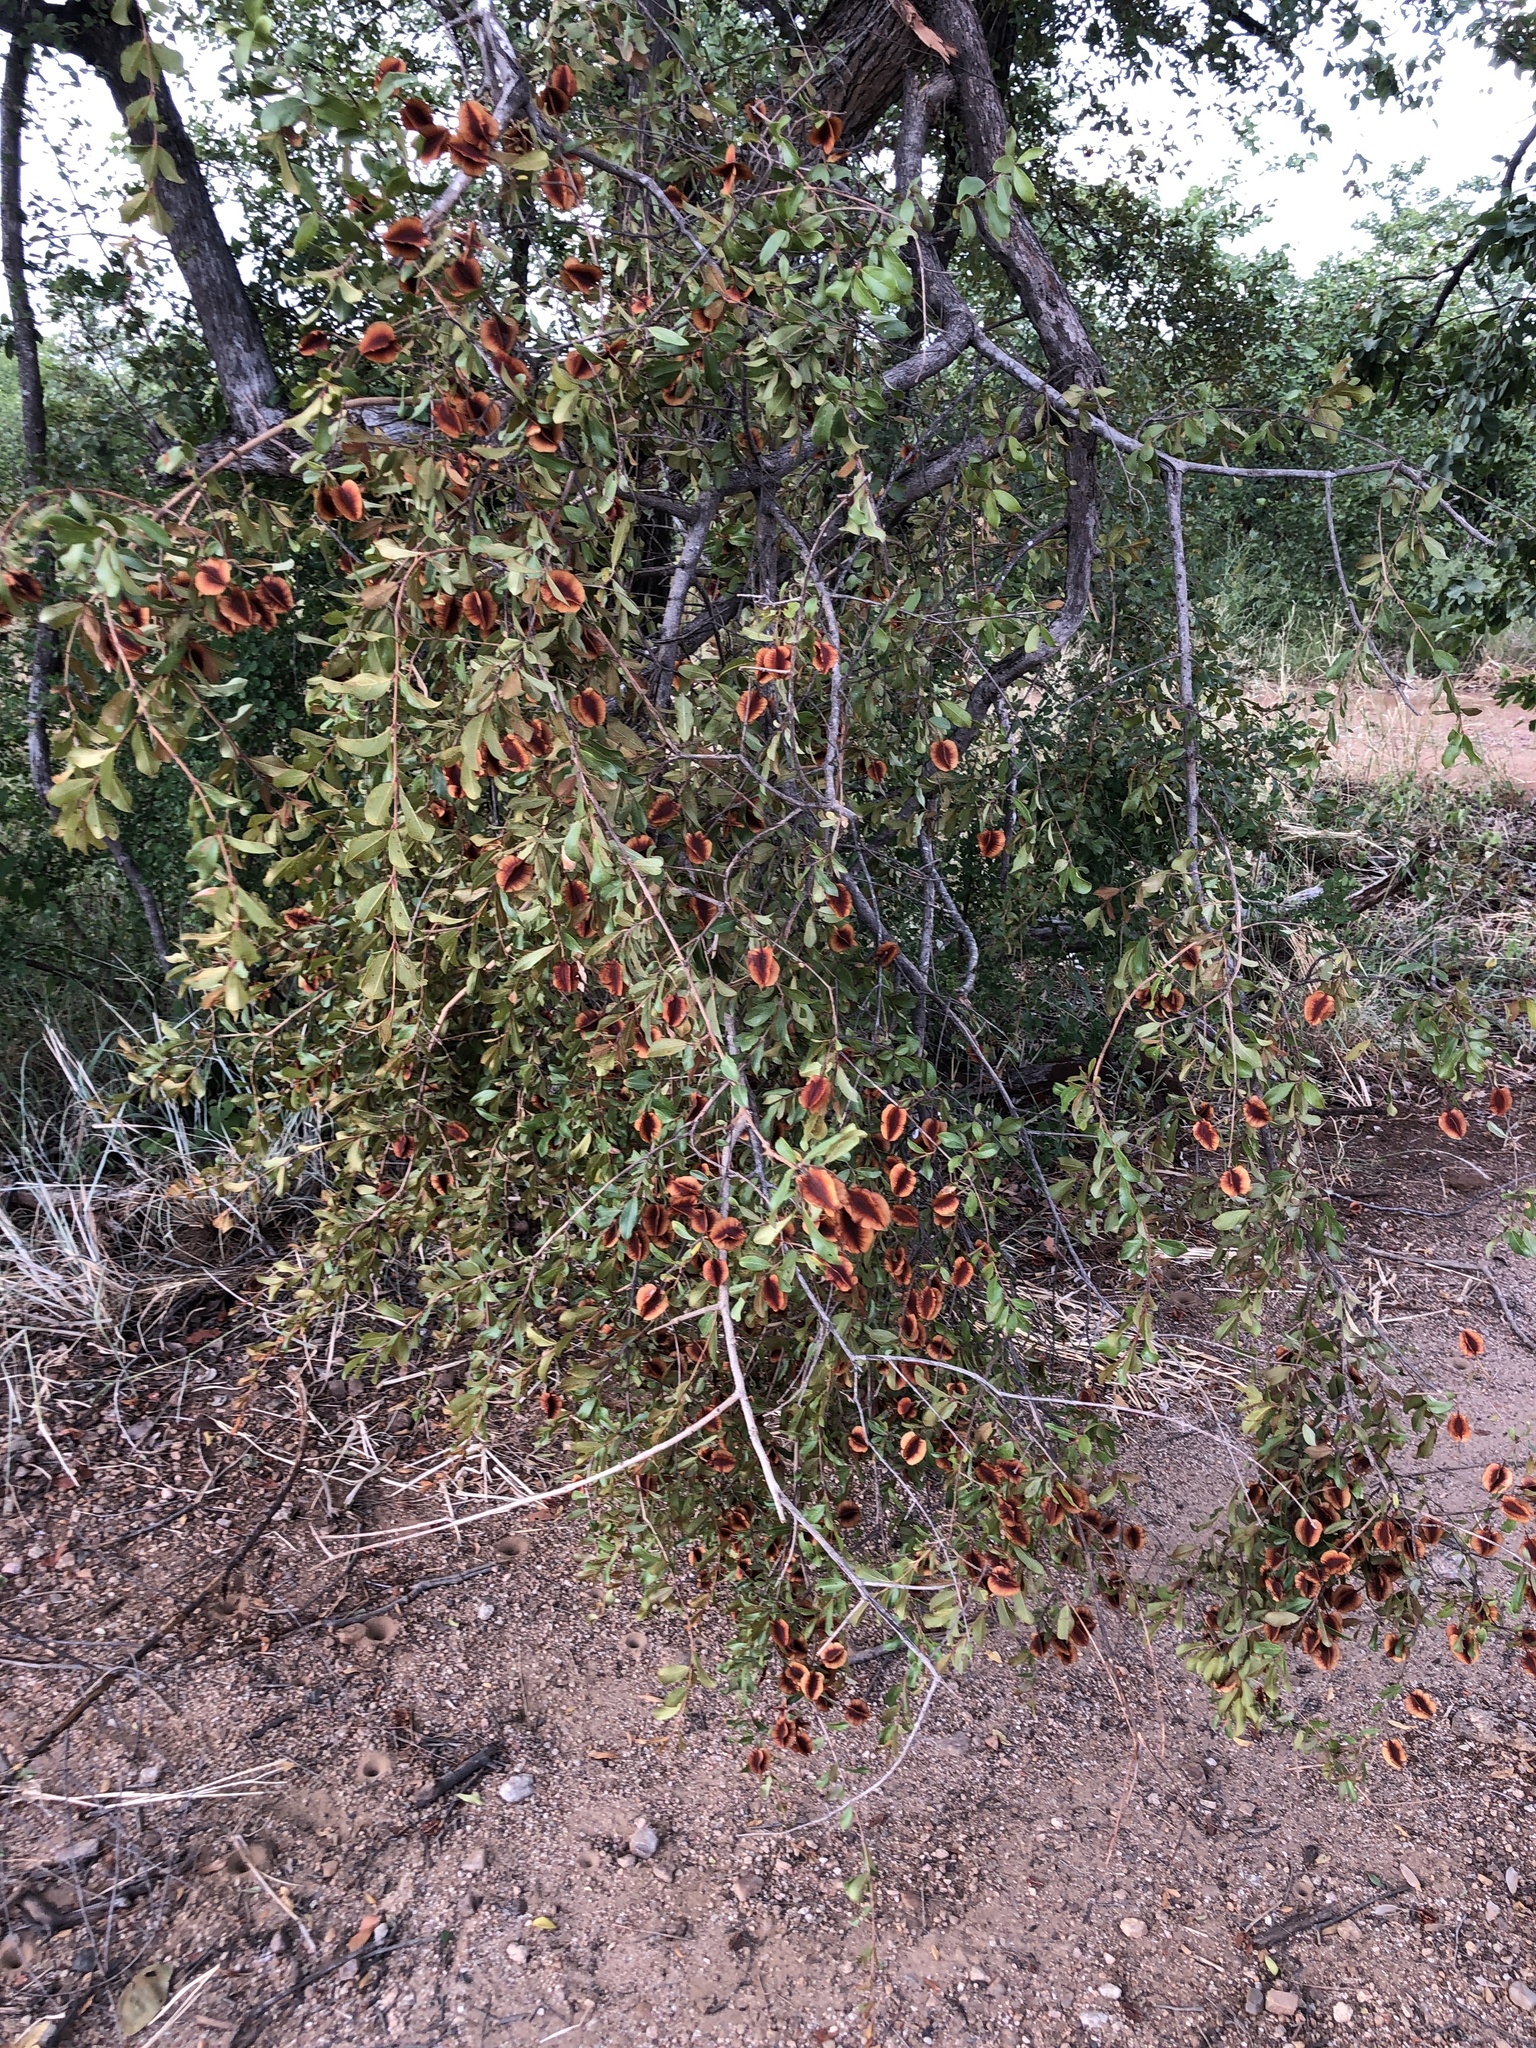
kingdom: Plantae
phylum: Tracheophyta
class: Magnoliopsida
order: Myrtales
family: Combretaceae
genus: Combretum
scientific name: Combretum hereroense
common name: Russet bushwillow
